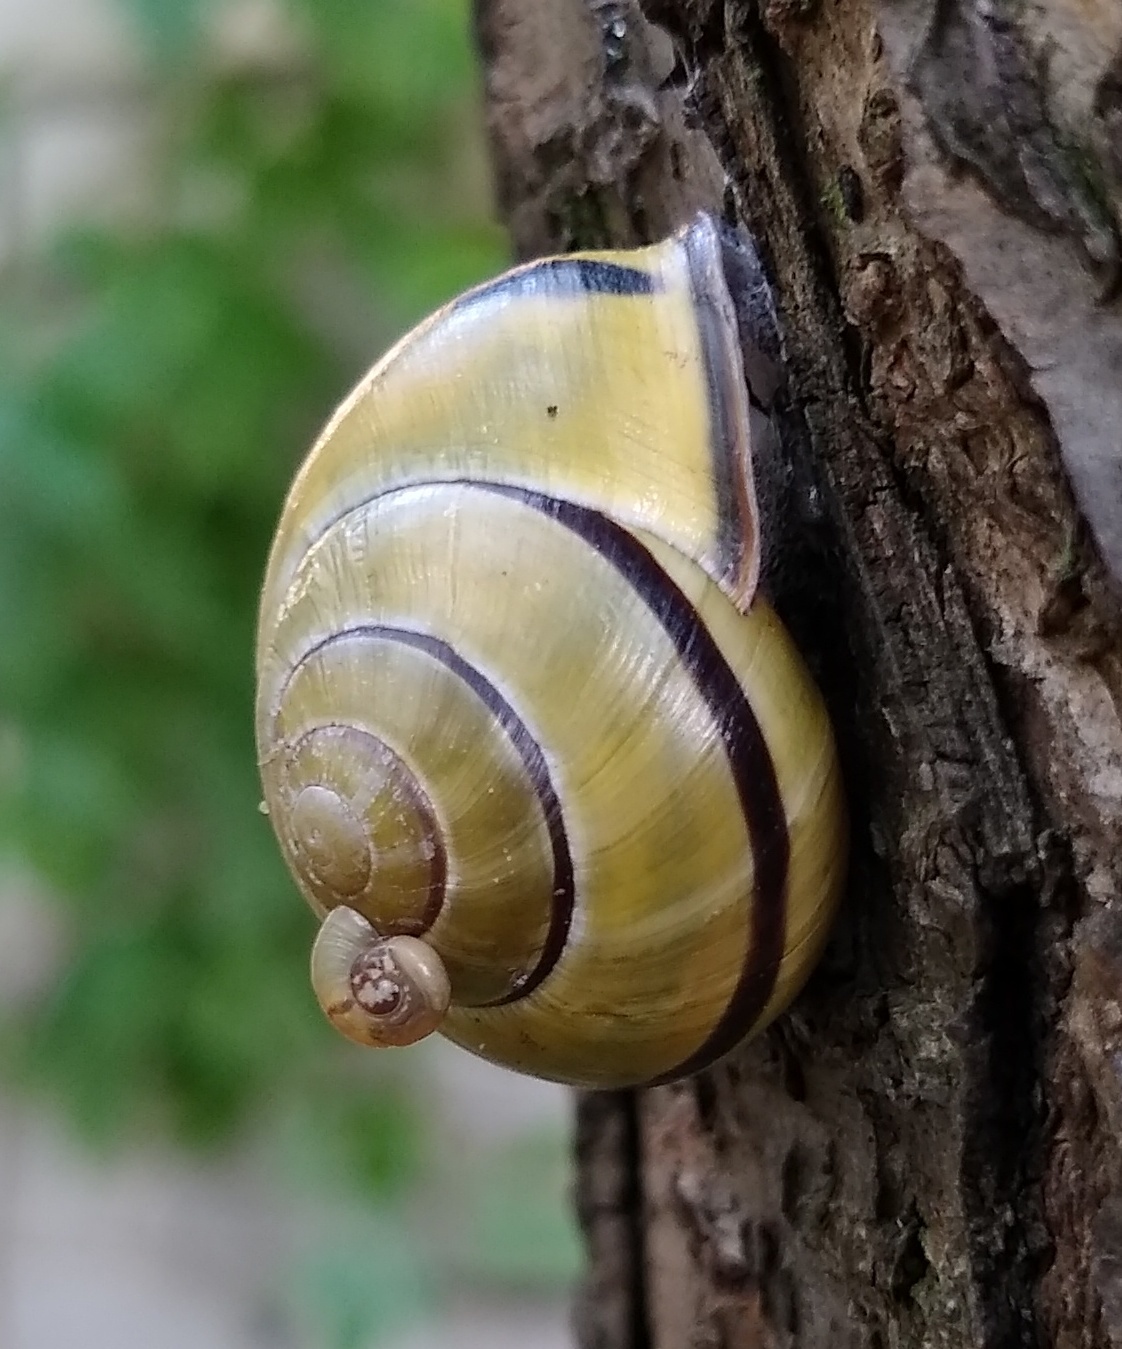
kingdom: Animalia
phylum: Mollusca
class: Gastropoda
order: Stylommatophora
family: Helicidae
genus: Cepaea
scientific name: Cepaea nemoralis
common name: Grovesnail
